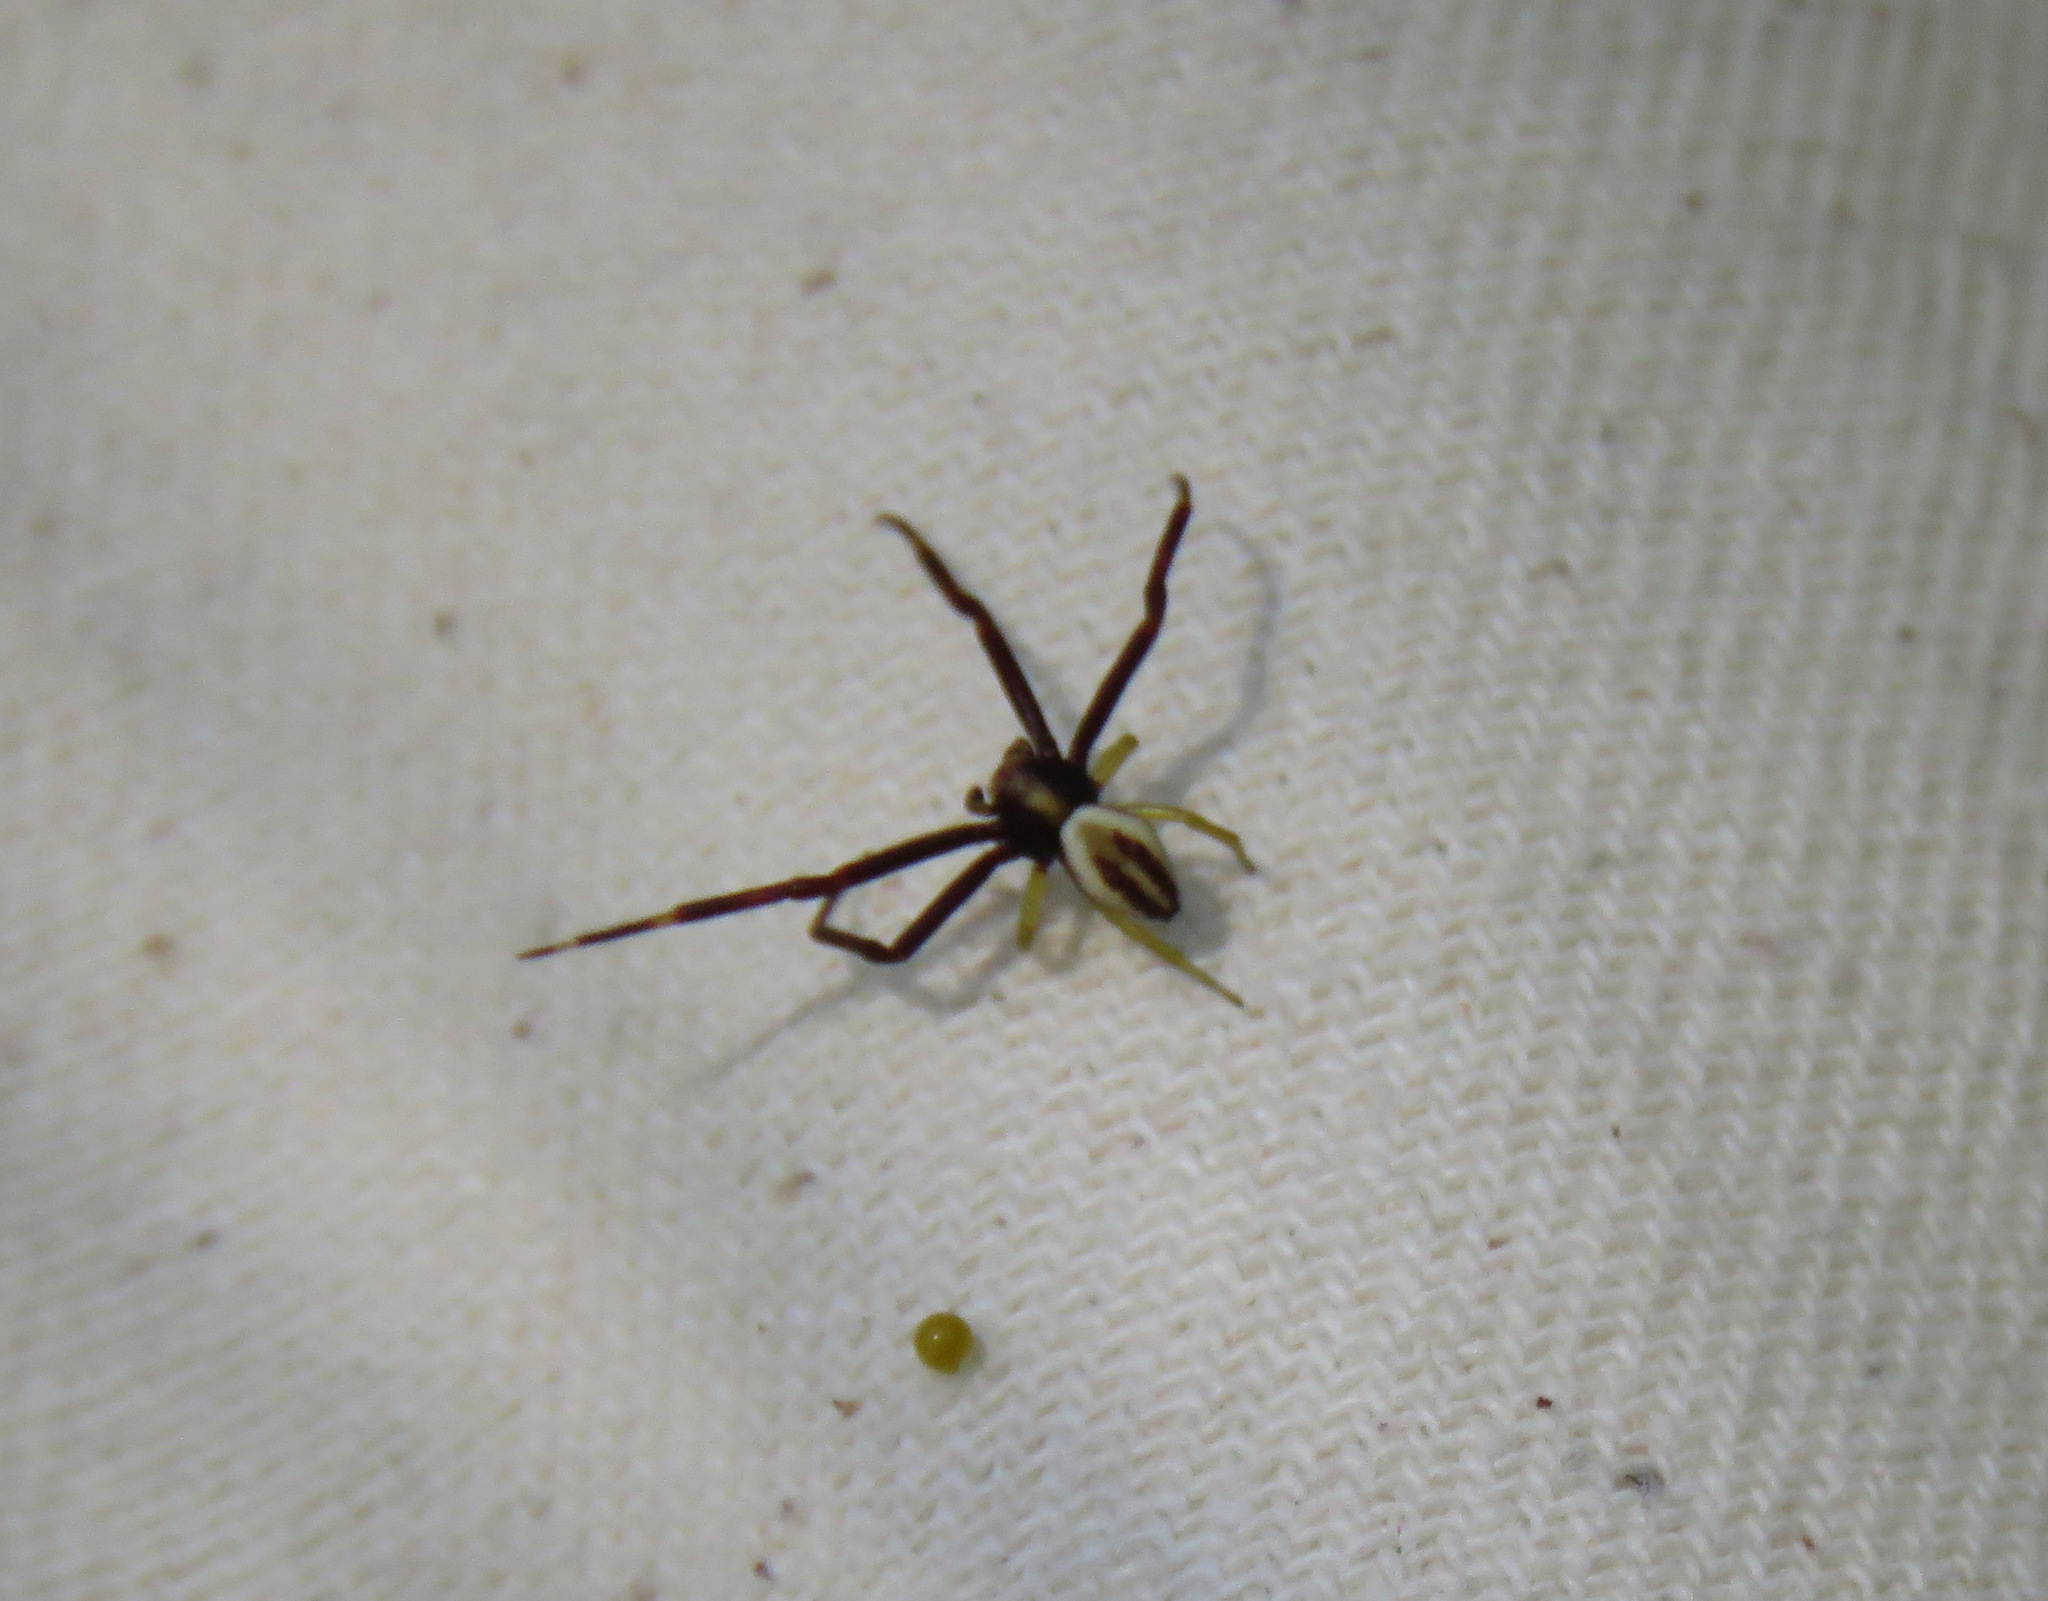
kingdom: Animalia
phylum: Arthropoda
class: Arachnida
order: Araneae
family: Thomisidae
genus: Misumena
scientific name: Misumena vatia
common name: Goldenrod crab spider
